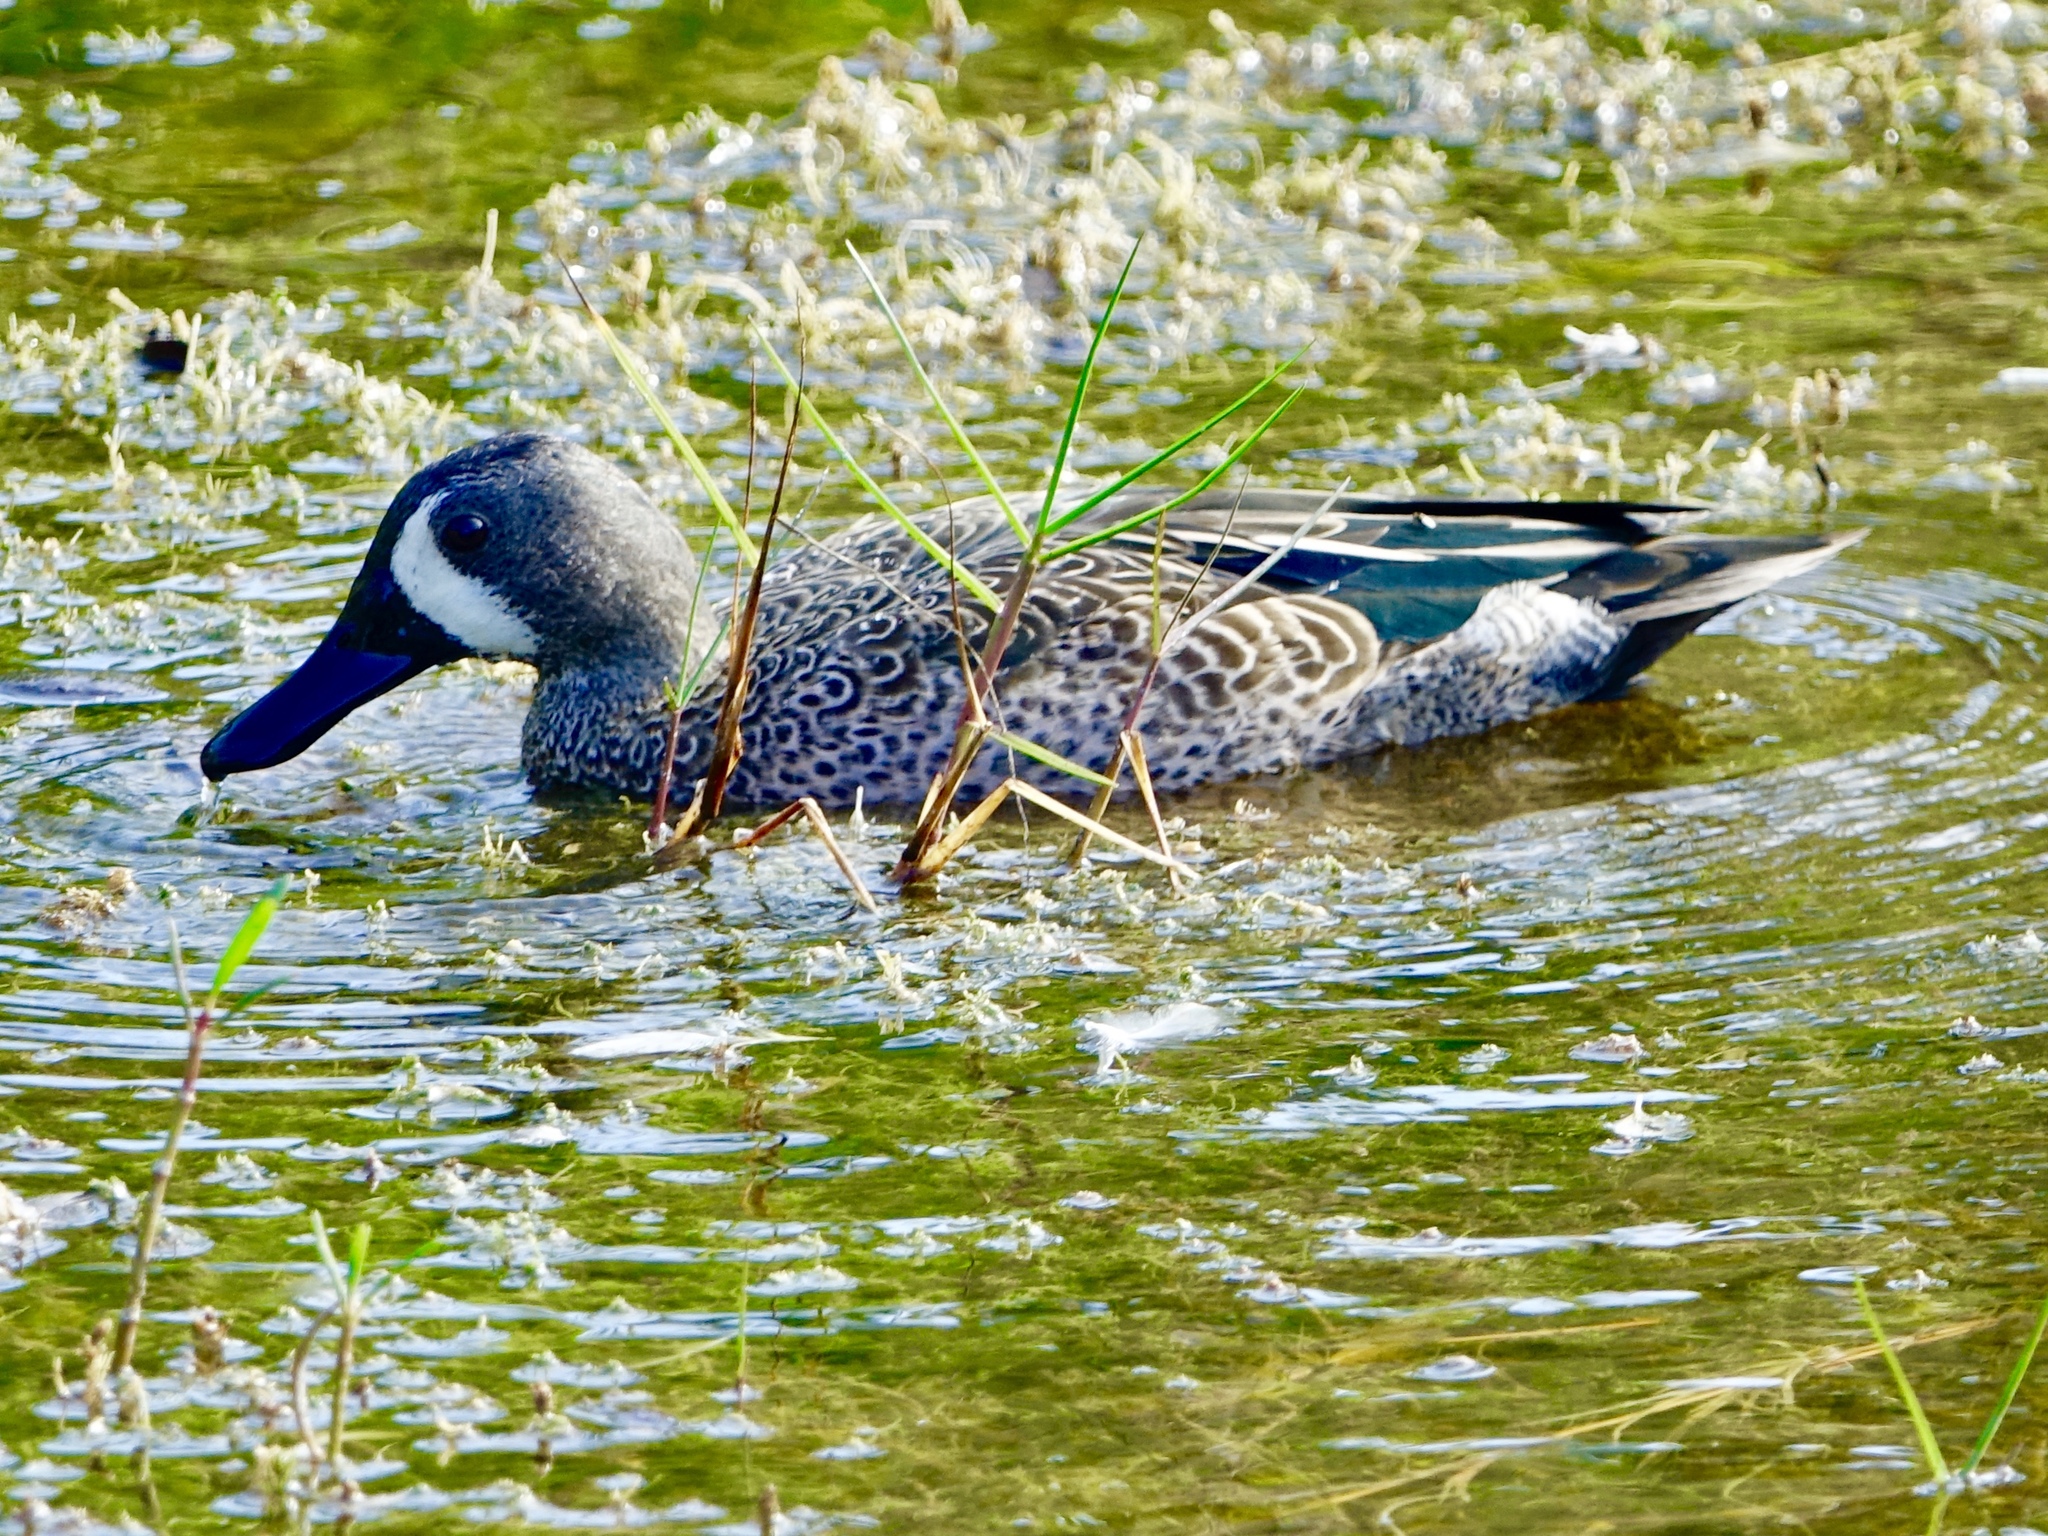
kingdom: Animalia
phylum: Chordata
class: Aves
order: Anseriformes
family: Anatidae
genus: Spatula
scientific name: Spatula discors
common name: Blue-winged teal
